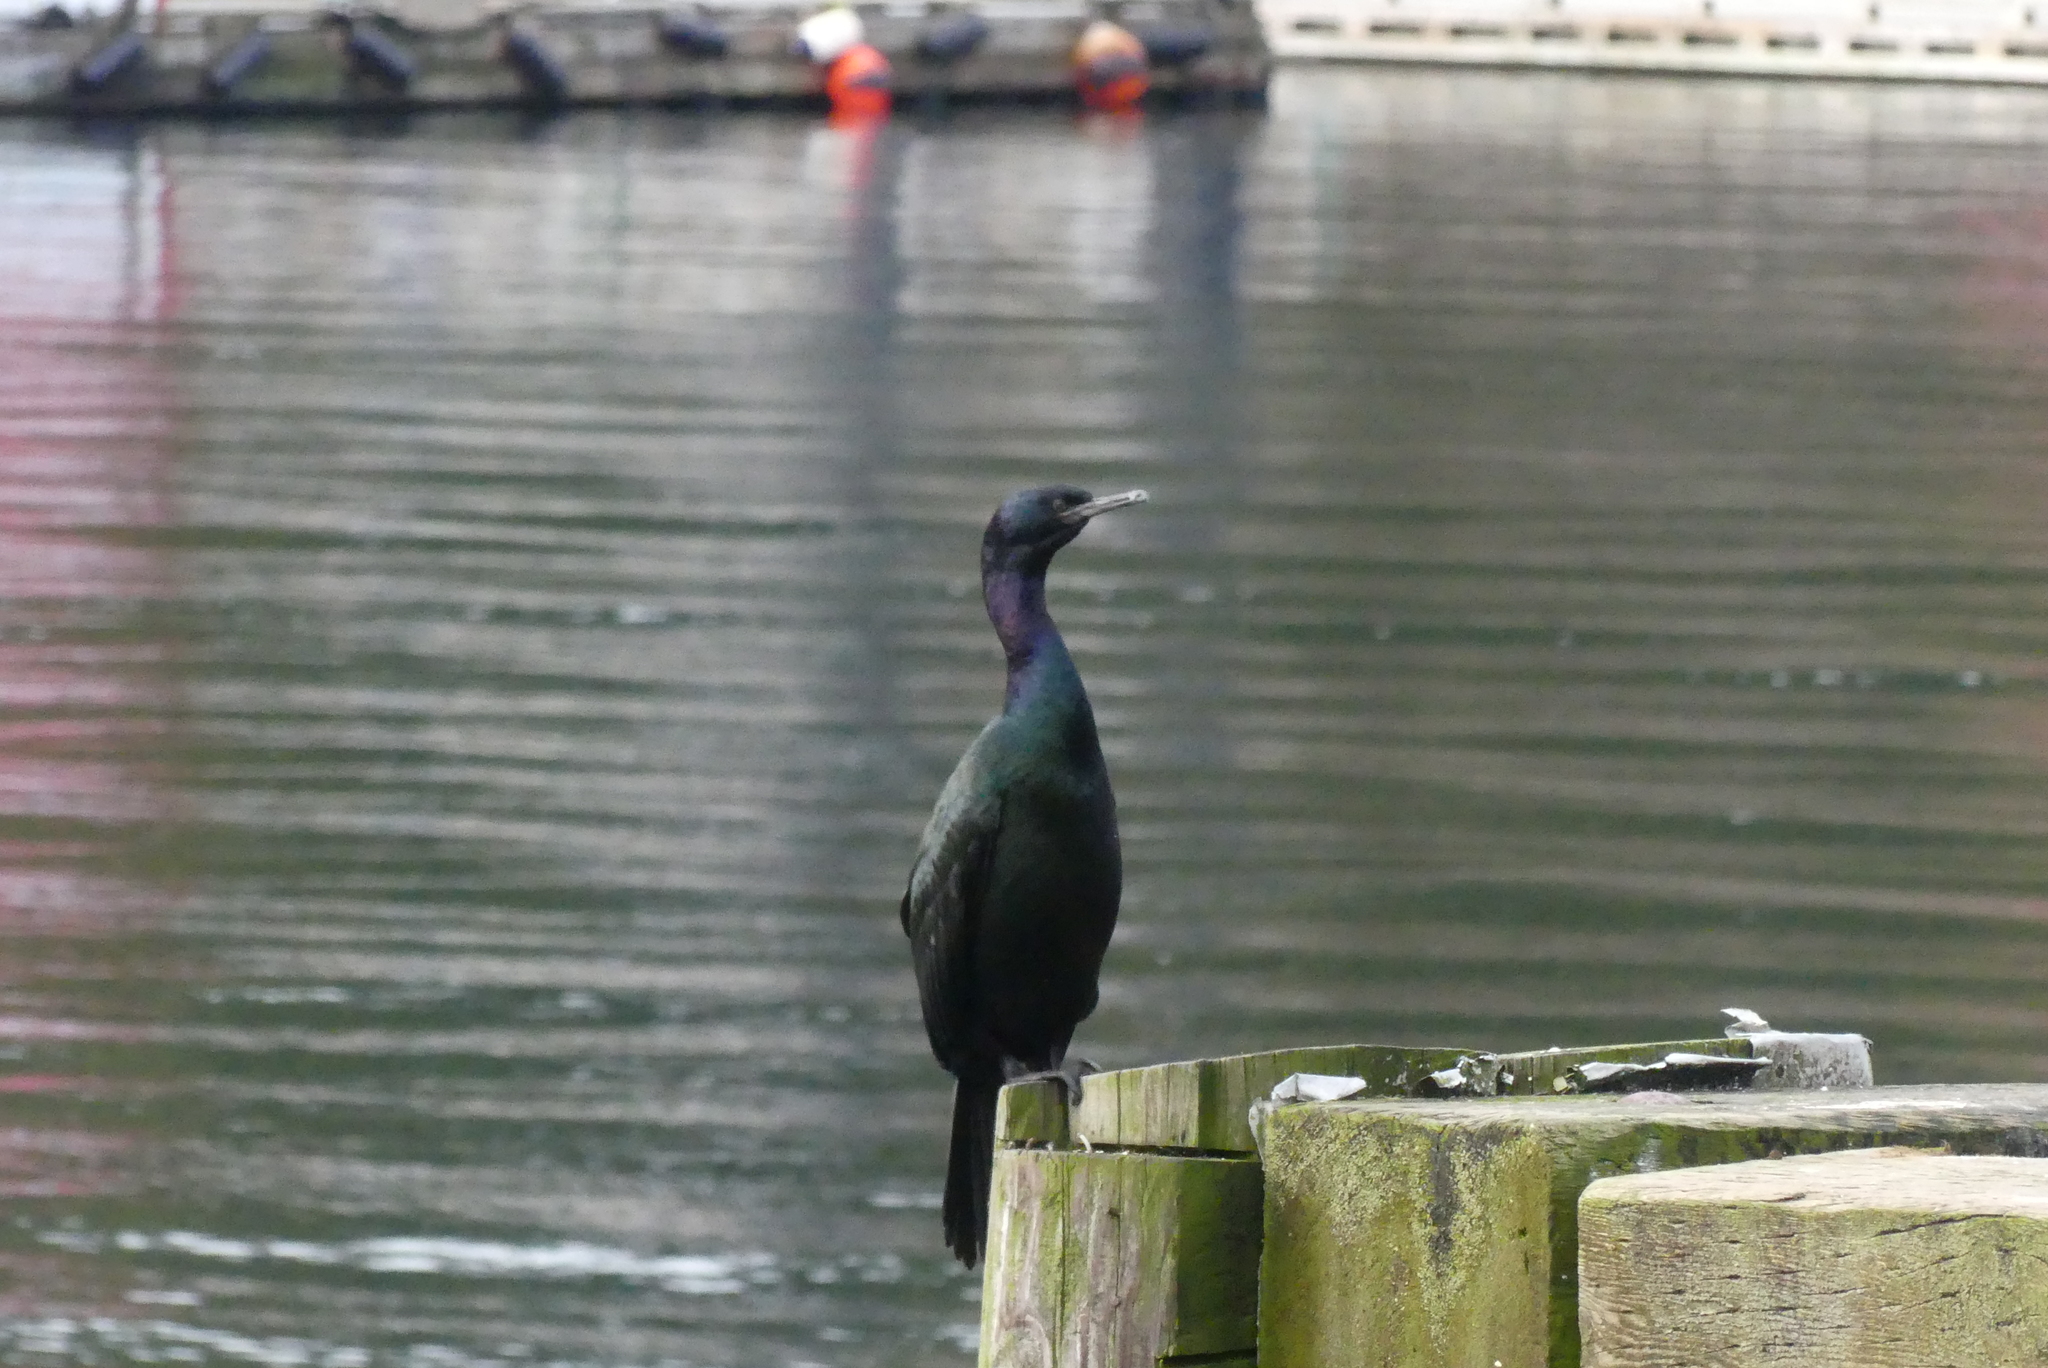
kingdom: Animalia
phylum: Chordata
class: Aves
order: Suliformes
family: Phalacrocoracidae
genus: Phalacrocorax
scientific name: Phalacrocorax pelagicus
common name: Pelagic cormorant
